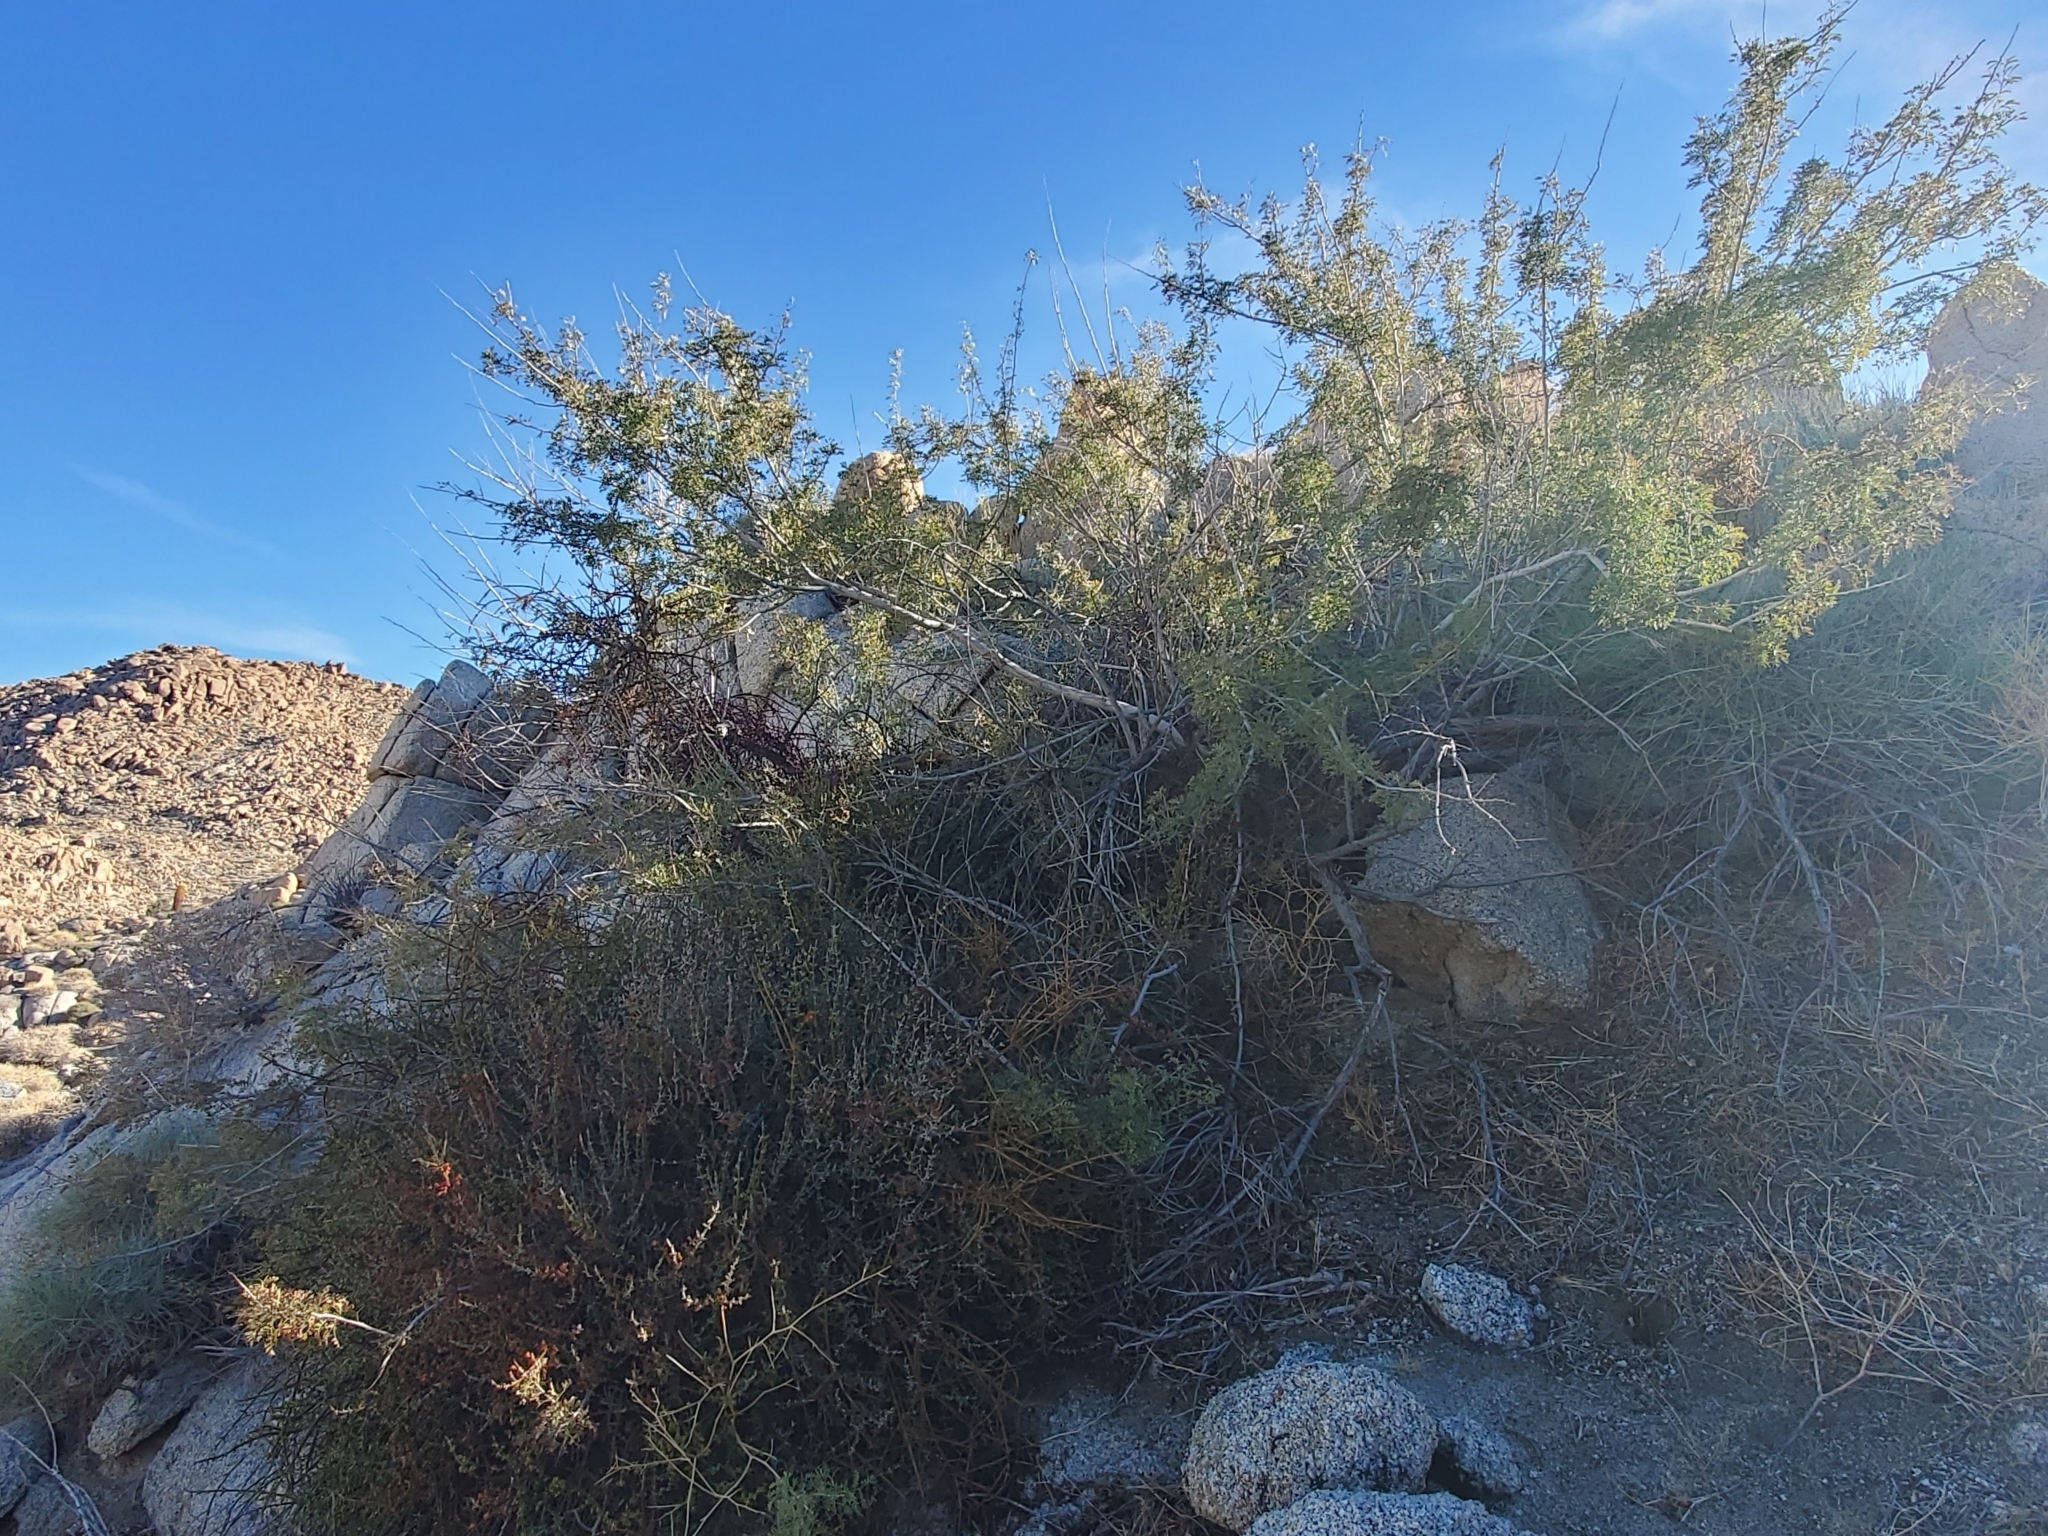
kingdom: Plantae
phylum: Tracheophyta
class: Magnoliopsida
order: Santalales
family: Viscaceae
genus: Phoradendron
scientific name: Phoradendron californicum
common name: Acacia mistletoe
